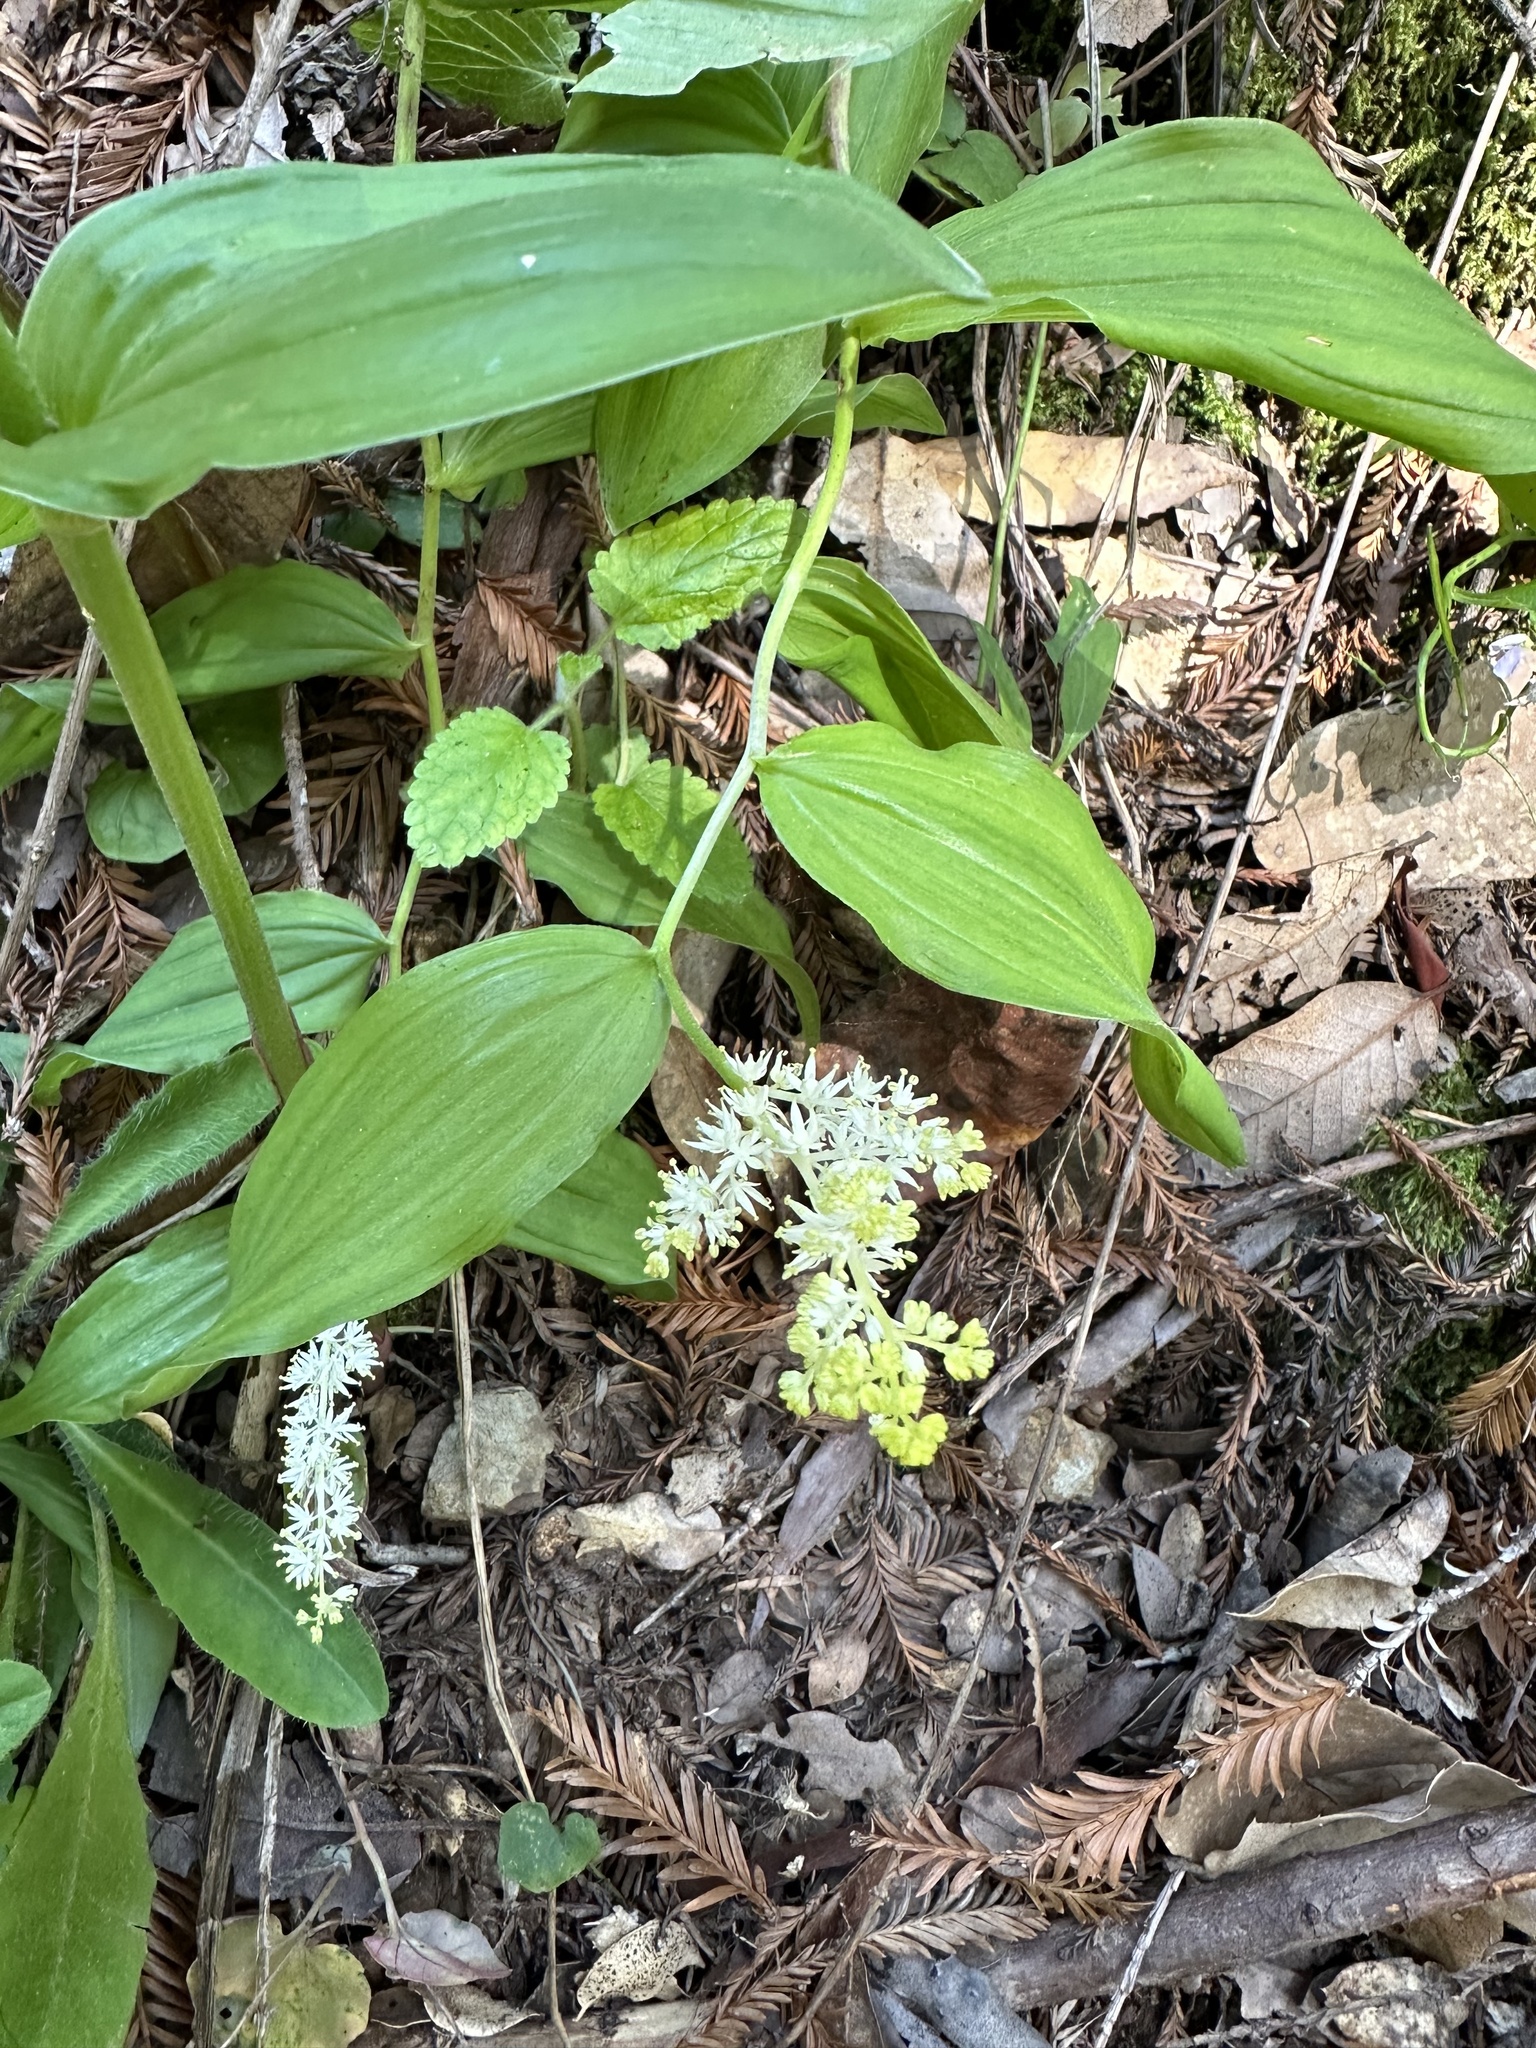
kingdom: Plantae
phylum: Tracheophyta
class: Liliopsida
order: Asparagales
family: Asparagaceae
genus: Maianthemum
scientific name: Maianthemum racemosum
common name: False spikenard
